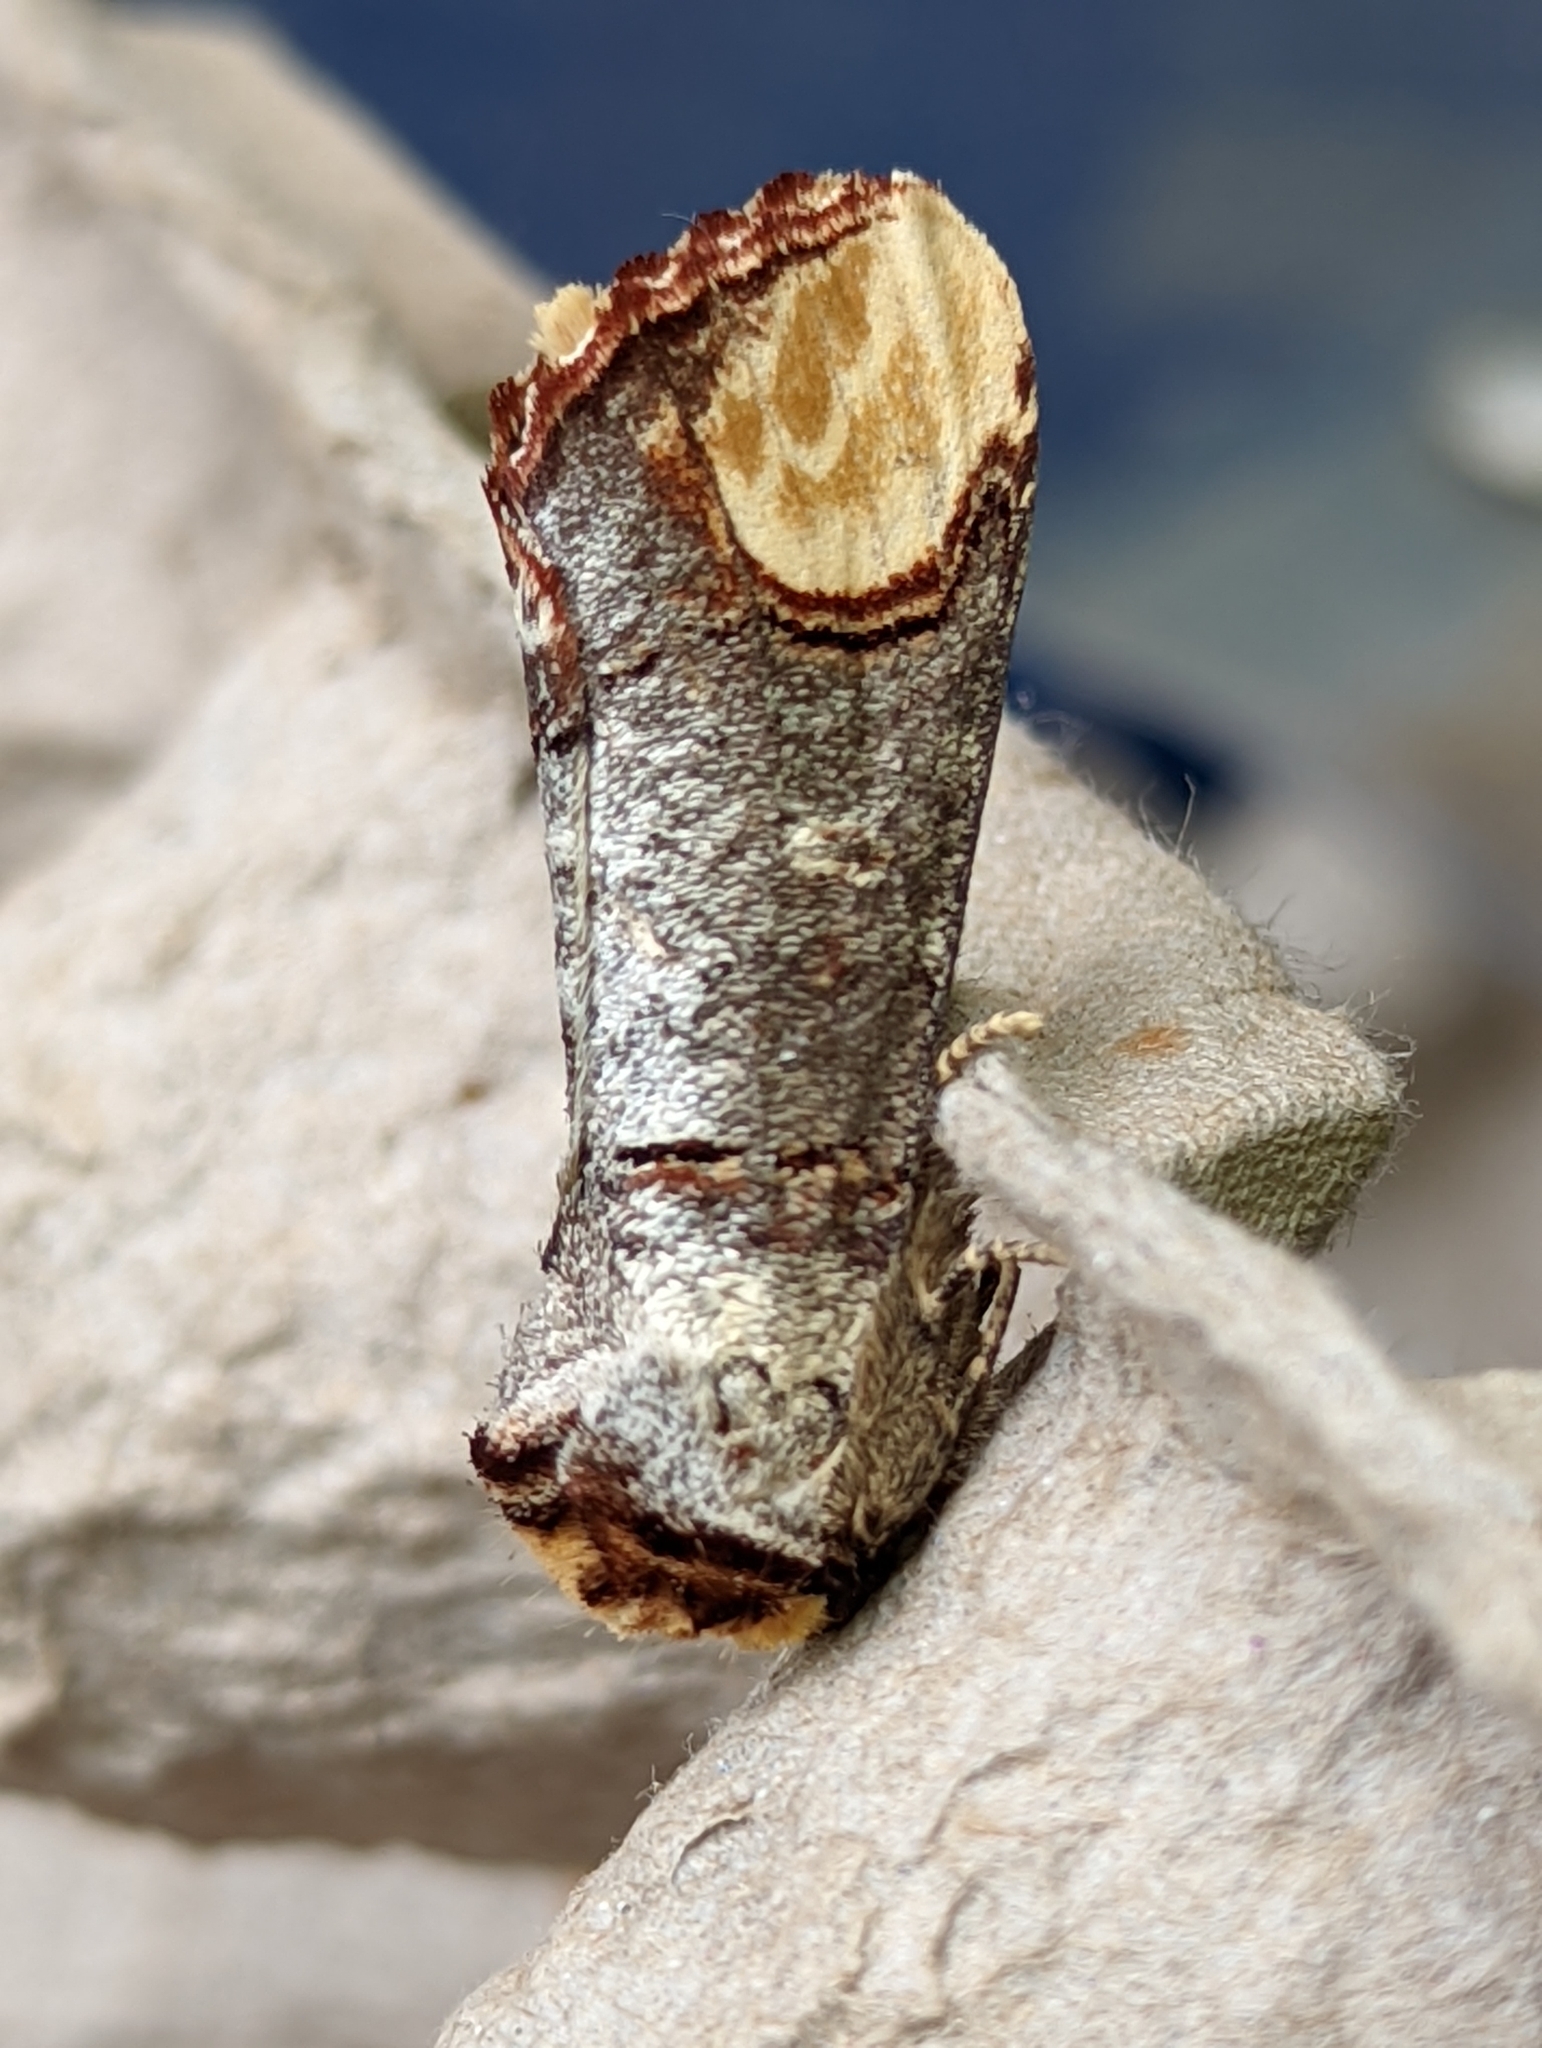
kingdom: Animalia
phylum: Arthropoda
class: Insecta
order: Lepidoptera
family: Notodontidae
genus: Phalera
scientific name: Phalera bucephala
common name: Buff-tip
